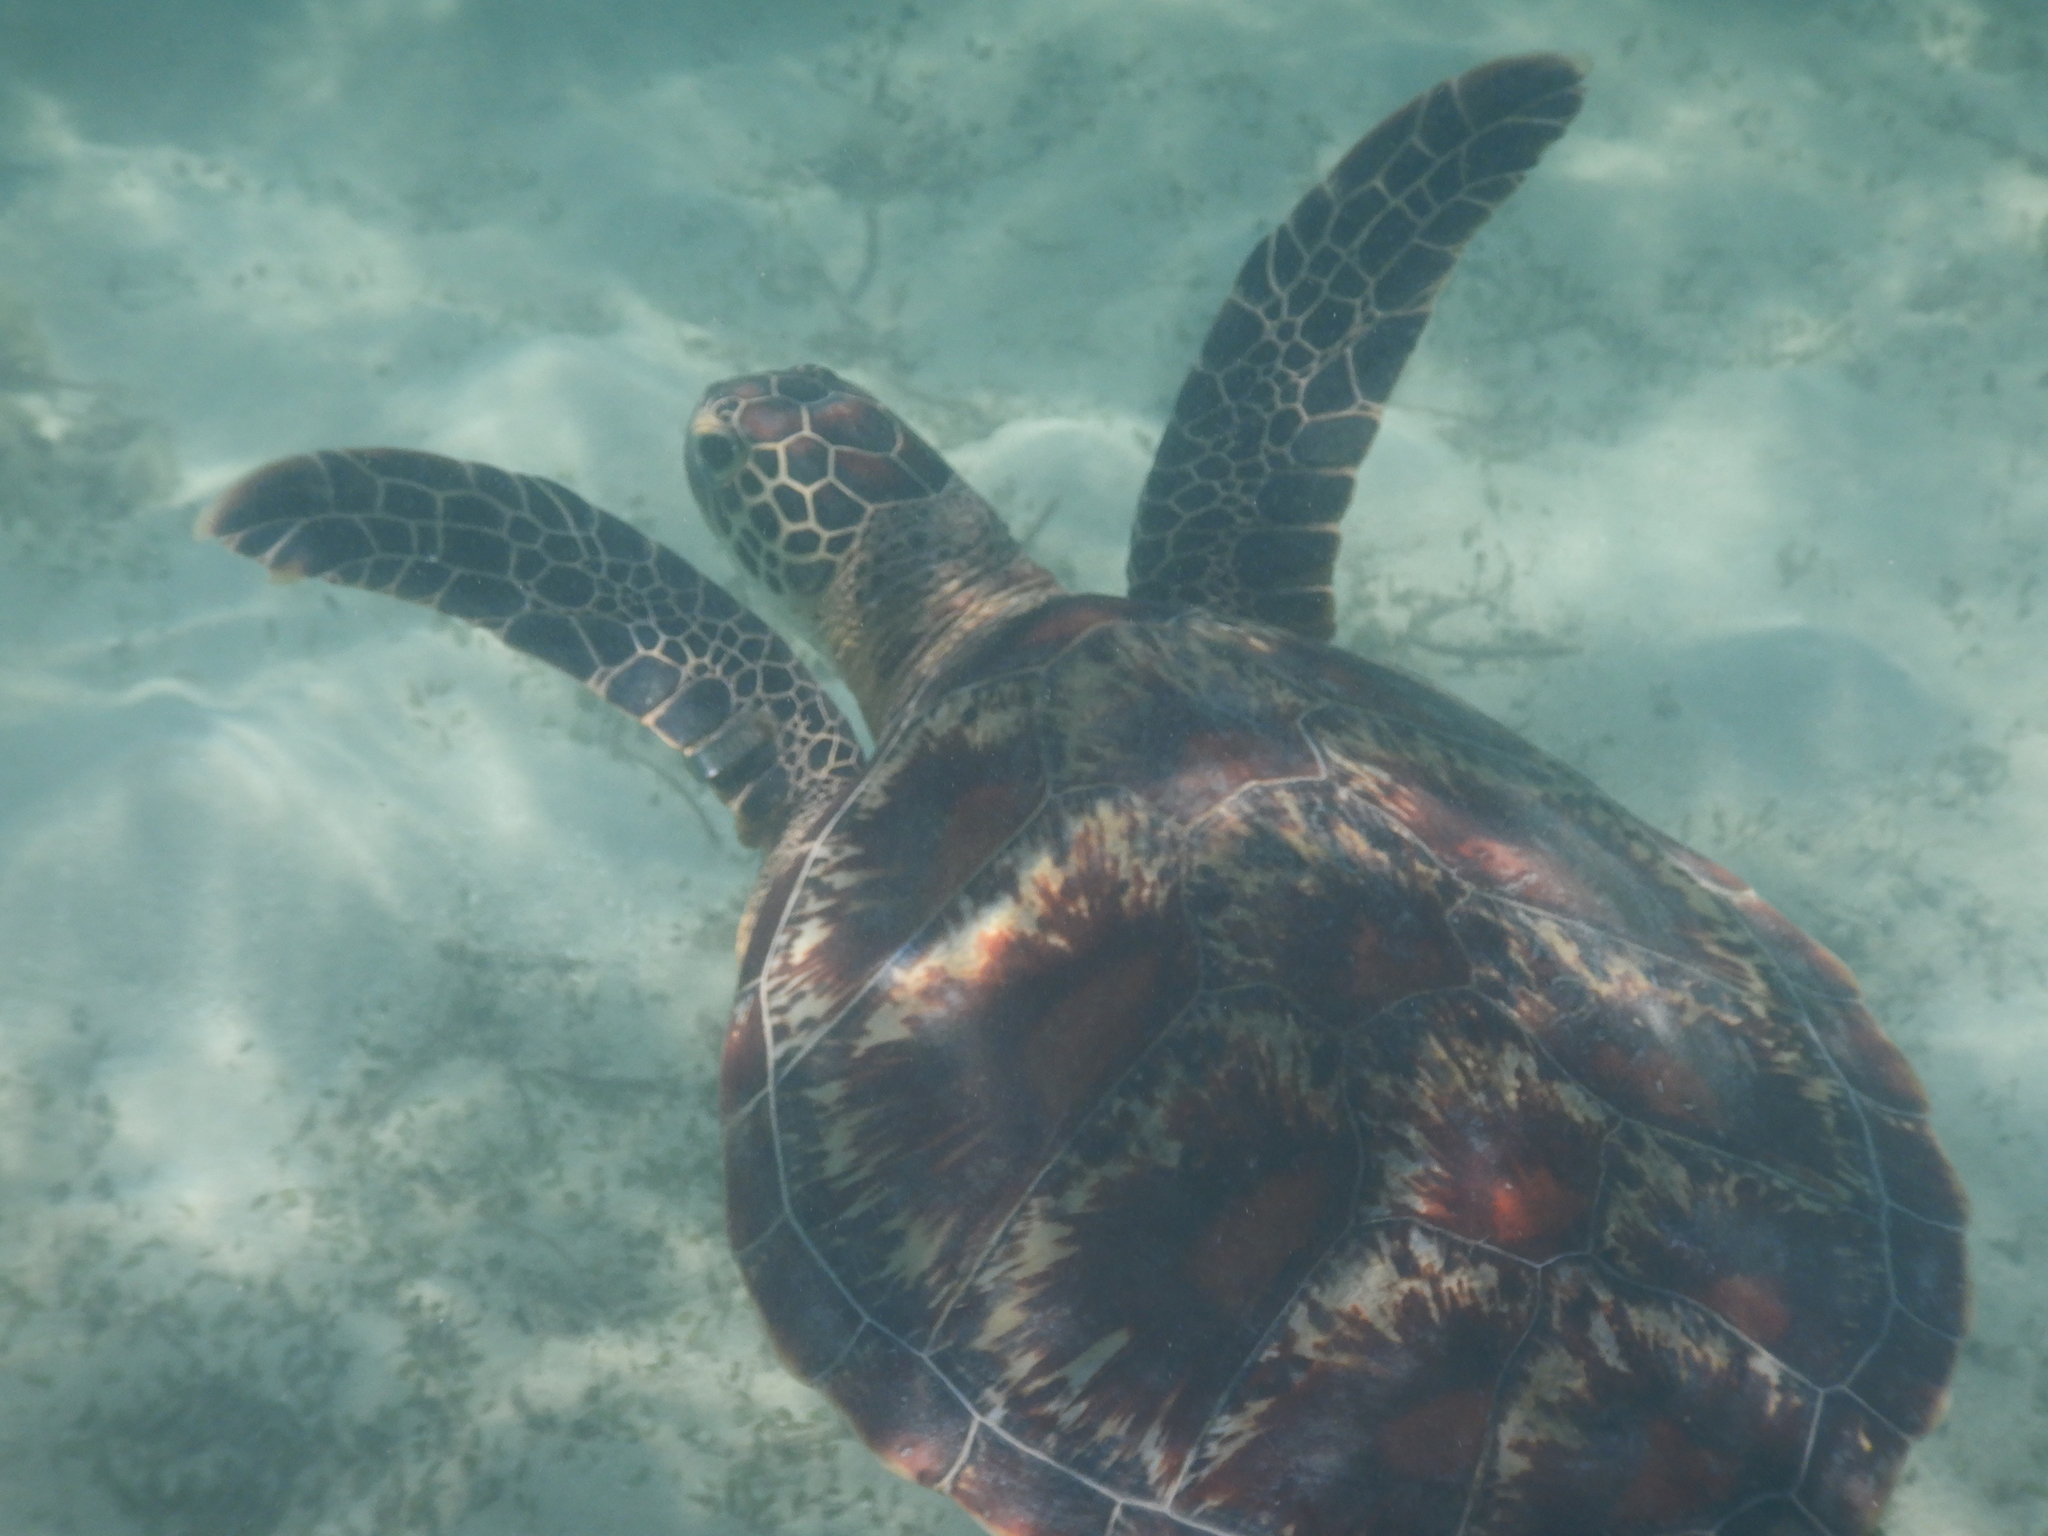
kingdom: Animalia
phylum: Chordata
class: Testudines
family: Cheloniidae
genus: Chelonia
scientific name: Chelonia mydas
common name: Green turtle
